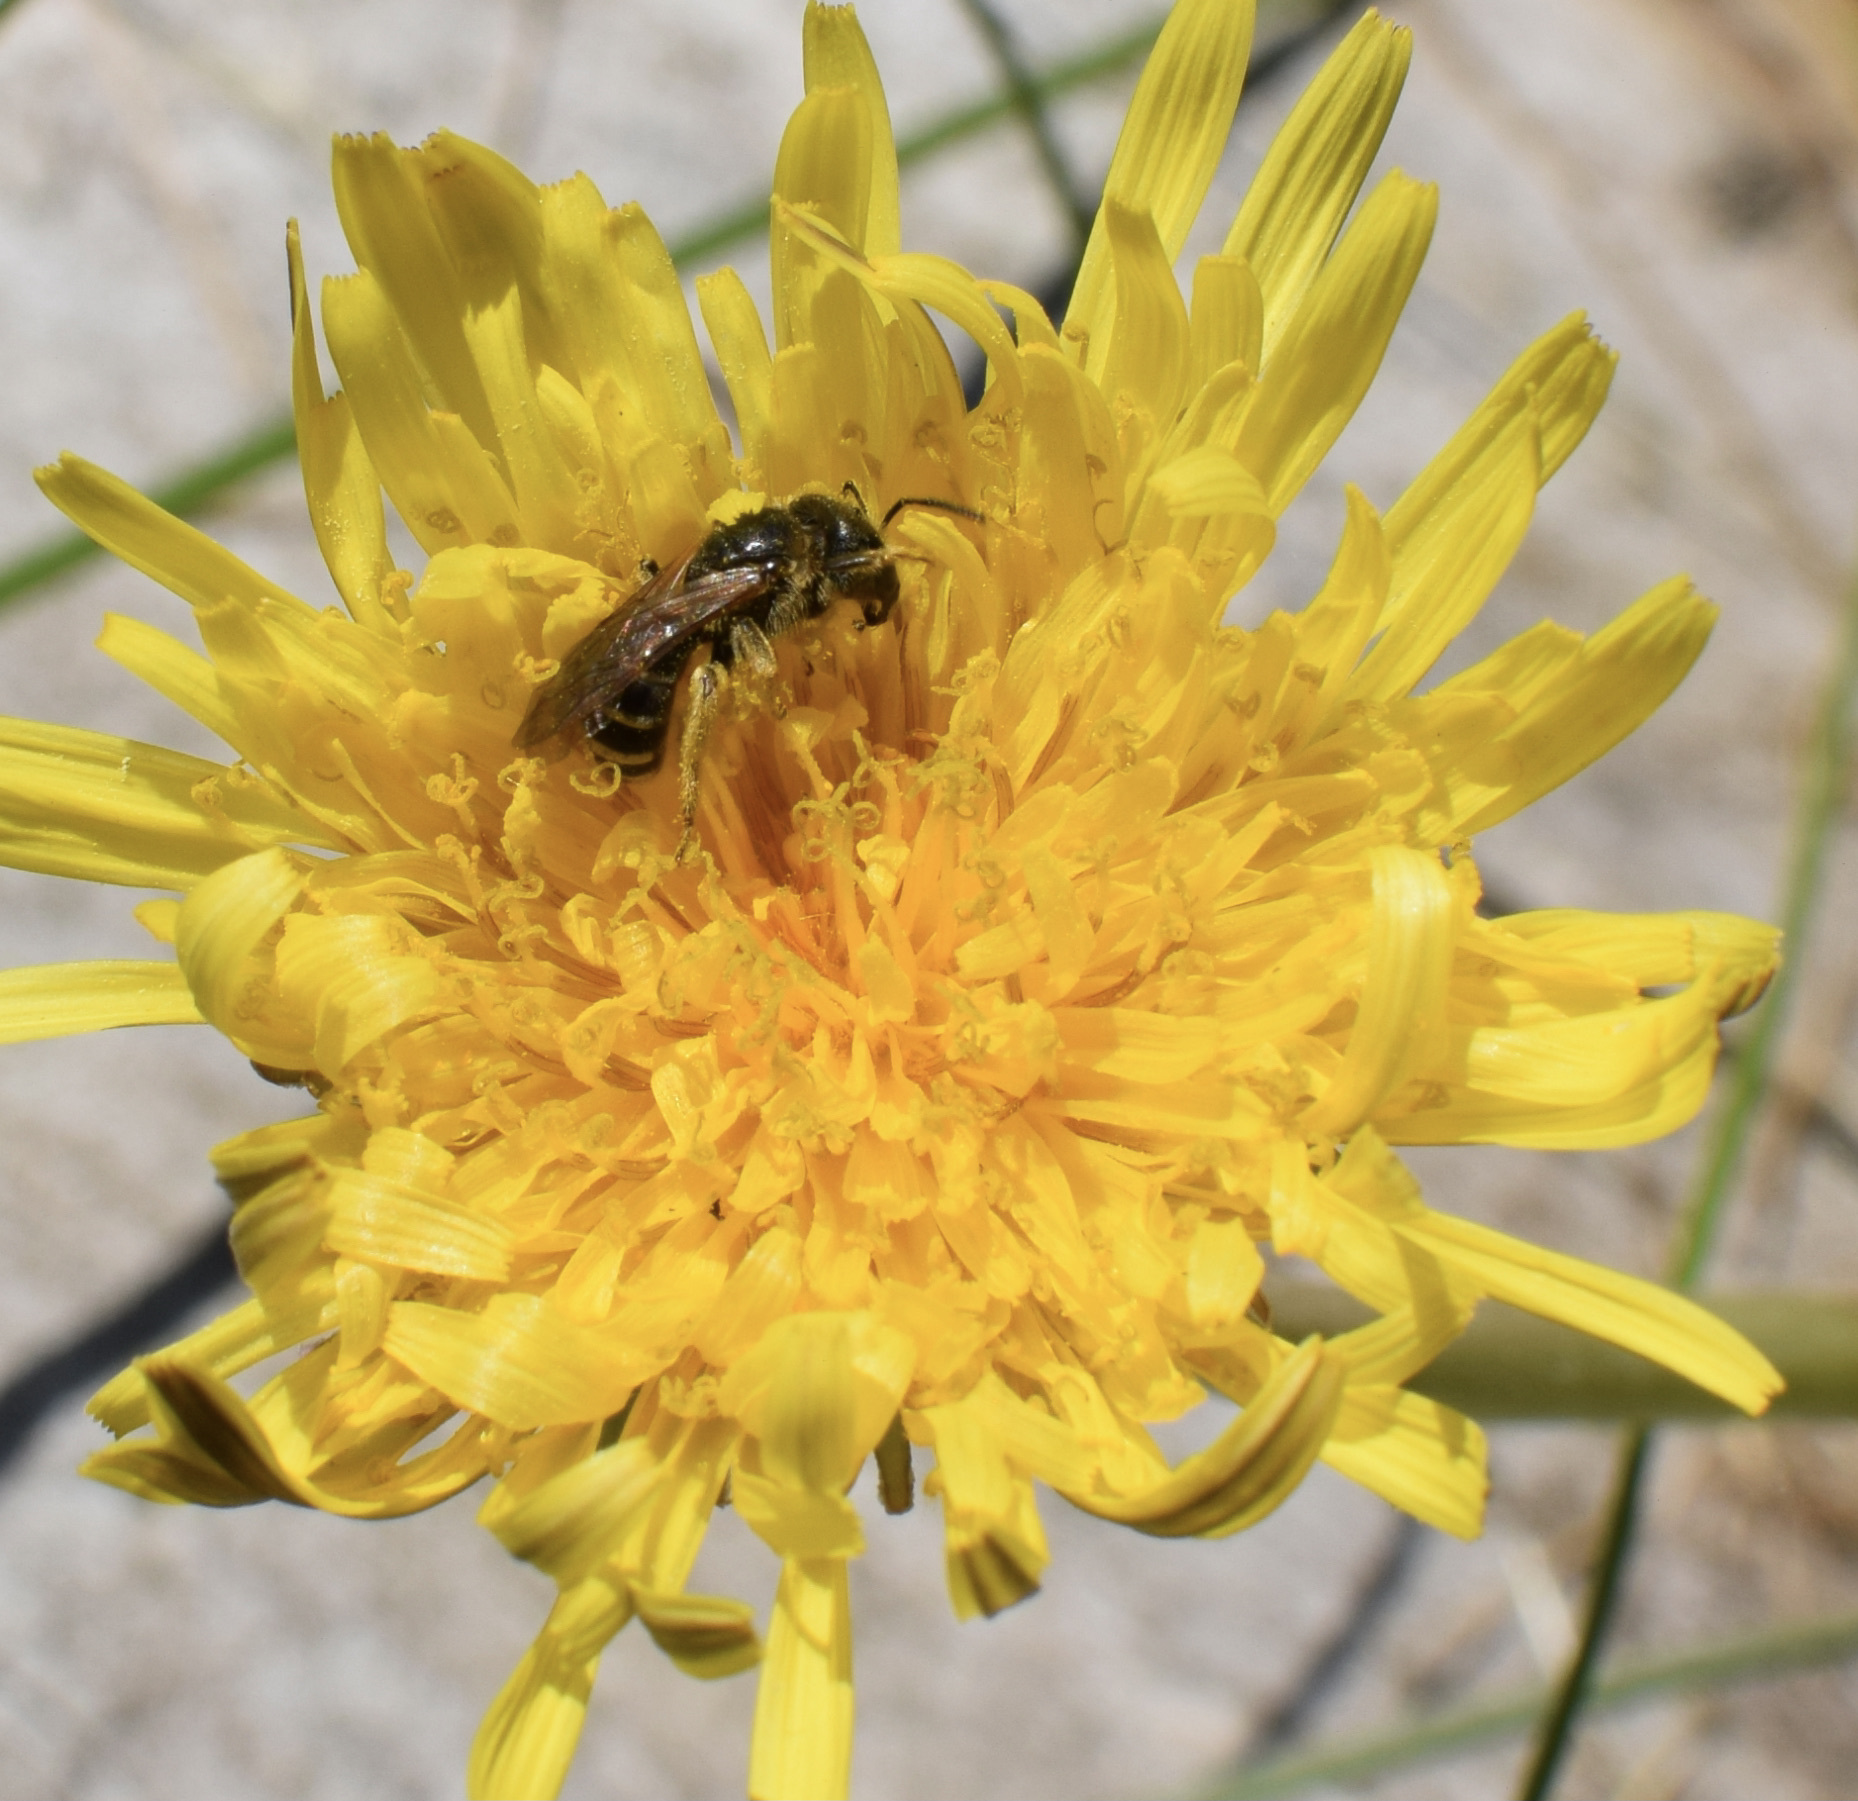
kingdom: Animalia
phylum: Arthropoda
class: Insecta
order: Hymenoptera
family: Halictidae
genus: Halictus
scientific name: Halictus ligatus
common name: Ligated furrow bee
